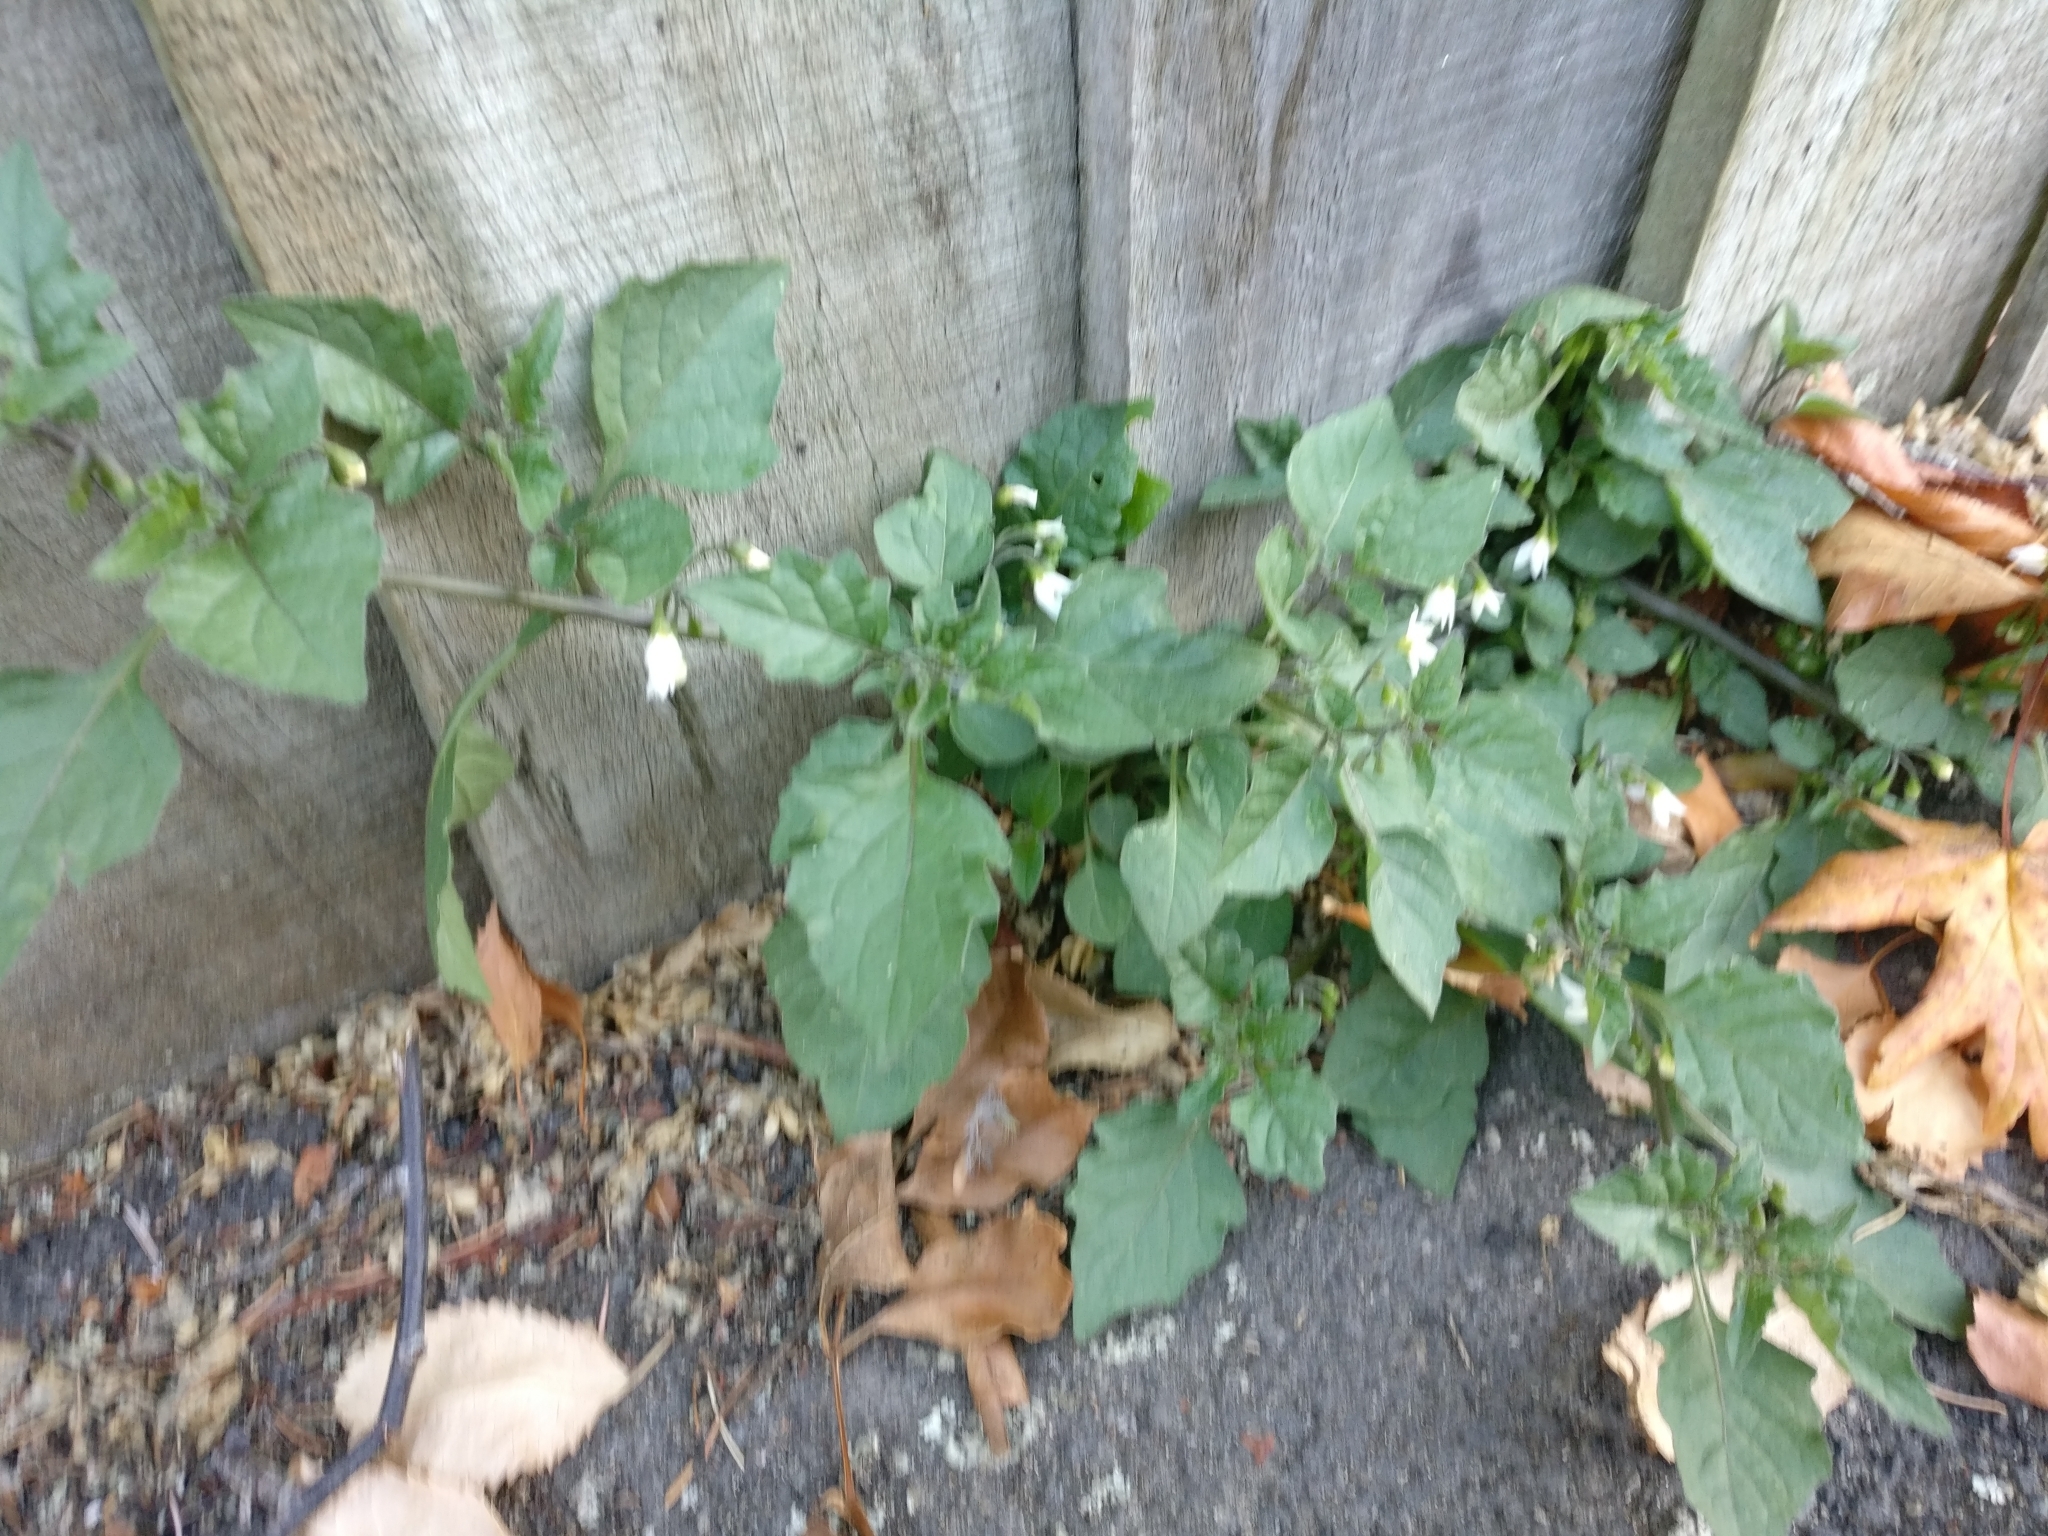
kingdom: Plantae
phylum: Tracheophyta
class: Magnoliopsida
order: Solanales
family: Solanaceae
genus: Solanum
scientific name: Solanum nigrum
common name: Black nightshade
